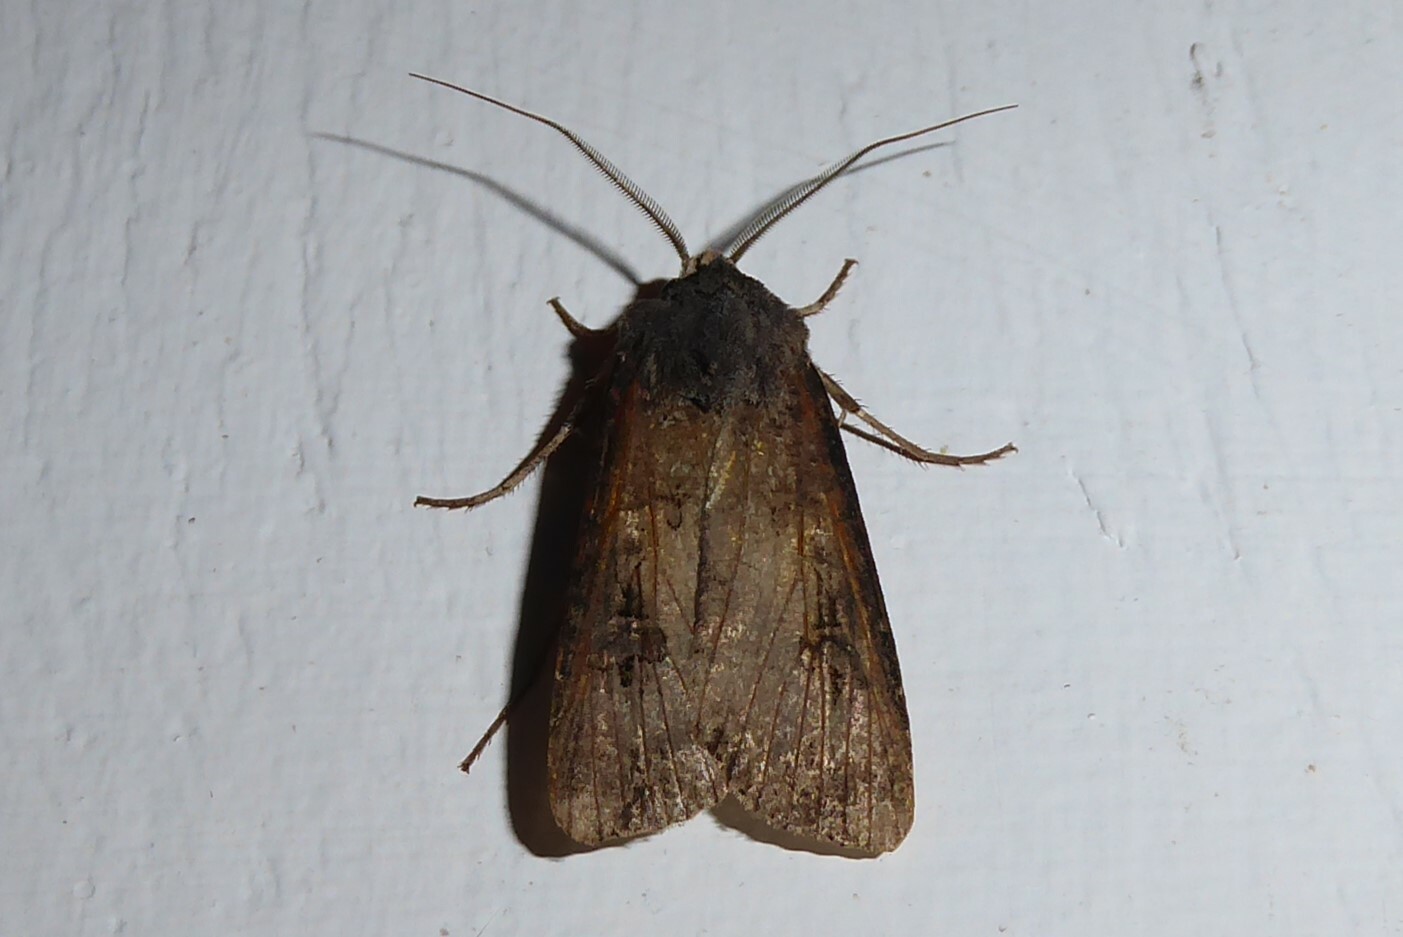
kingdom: Animalia
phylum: Arthropoda
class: Insecta
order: Lepidoptera
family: Noctuidae
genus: Agrotis
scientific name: Agrotis ipsilon
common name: Dark sword-grass
